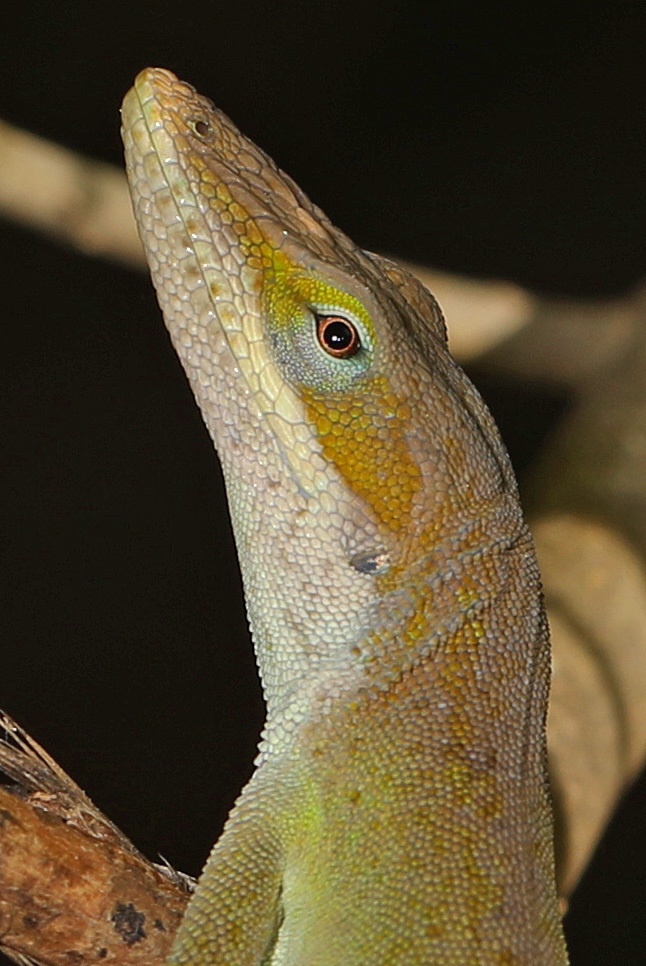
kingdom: Animalia
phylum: Chordata
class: Squamata
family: Dactyloidae
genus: Anolis
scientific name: Anolis carolinensis
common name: Green anole
